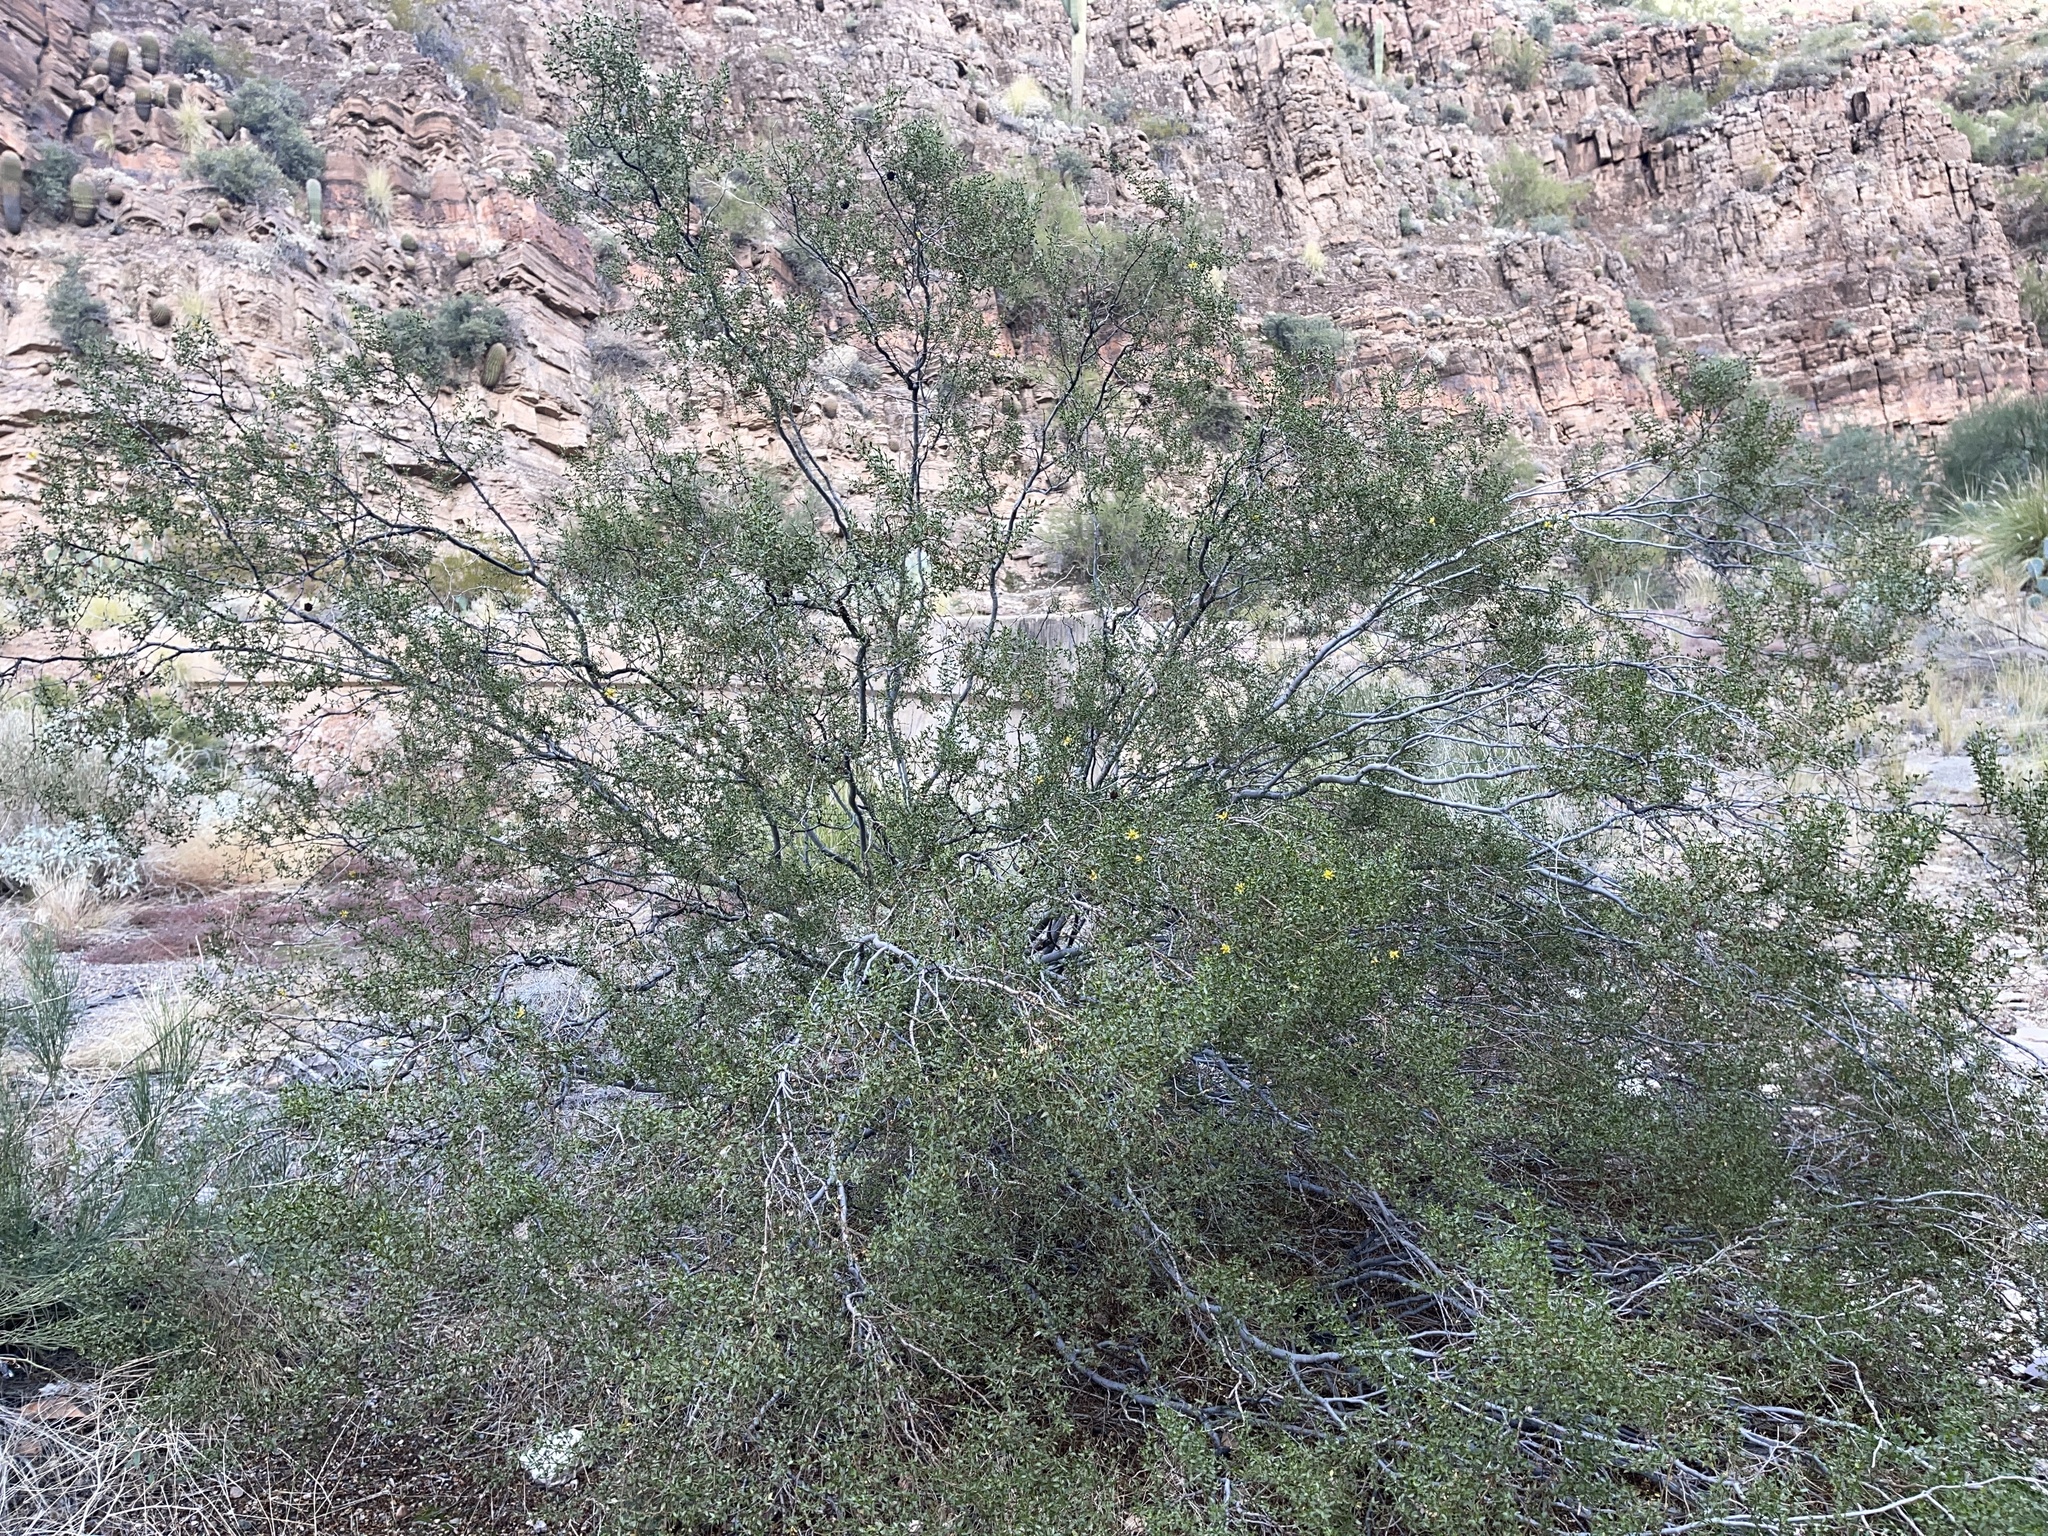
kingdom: Plantae
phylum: Tracheophyta
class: Magnoliopsida
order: Zygophyllales
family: Zygophyllaceae
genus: Larrea
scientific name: Larrea tridentata
